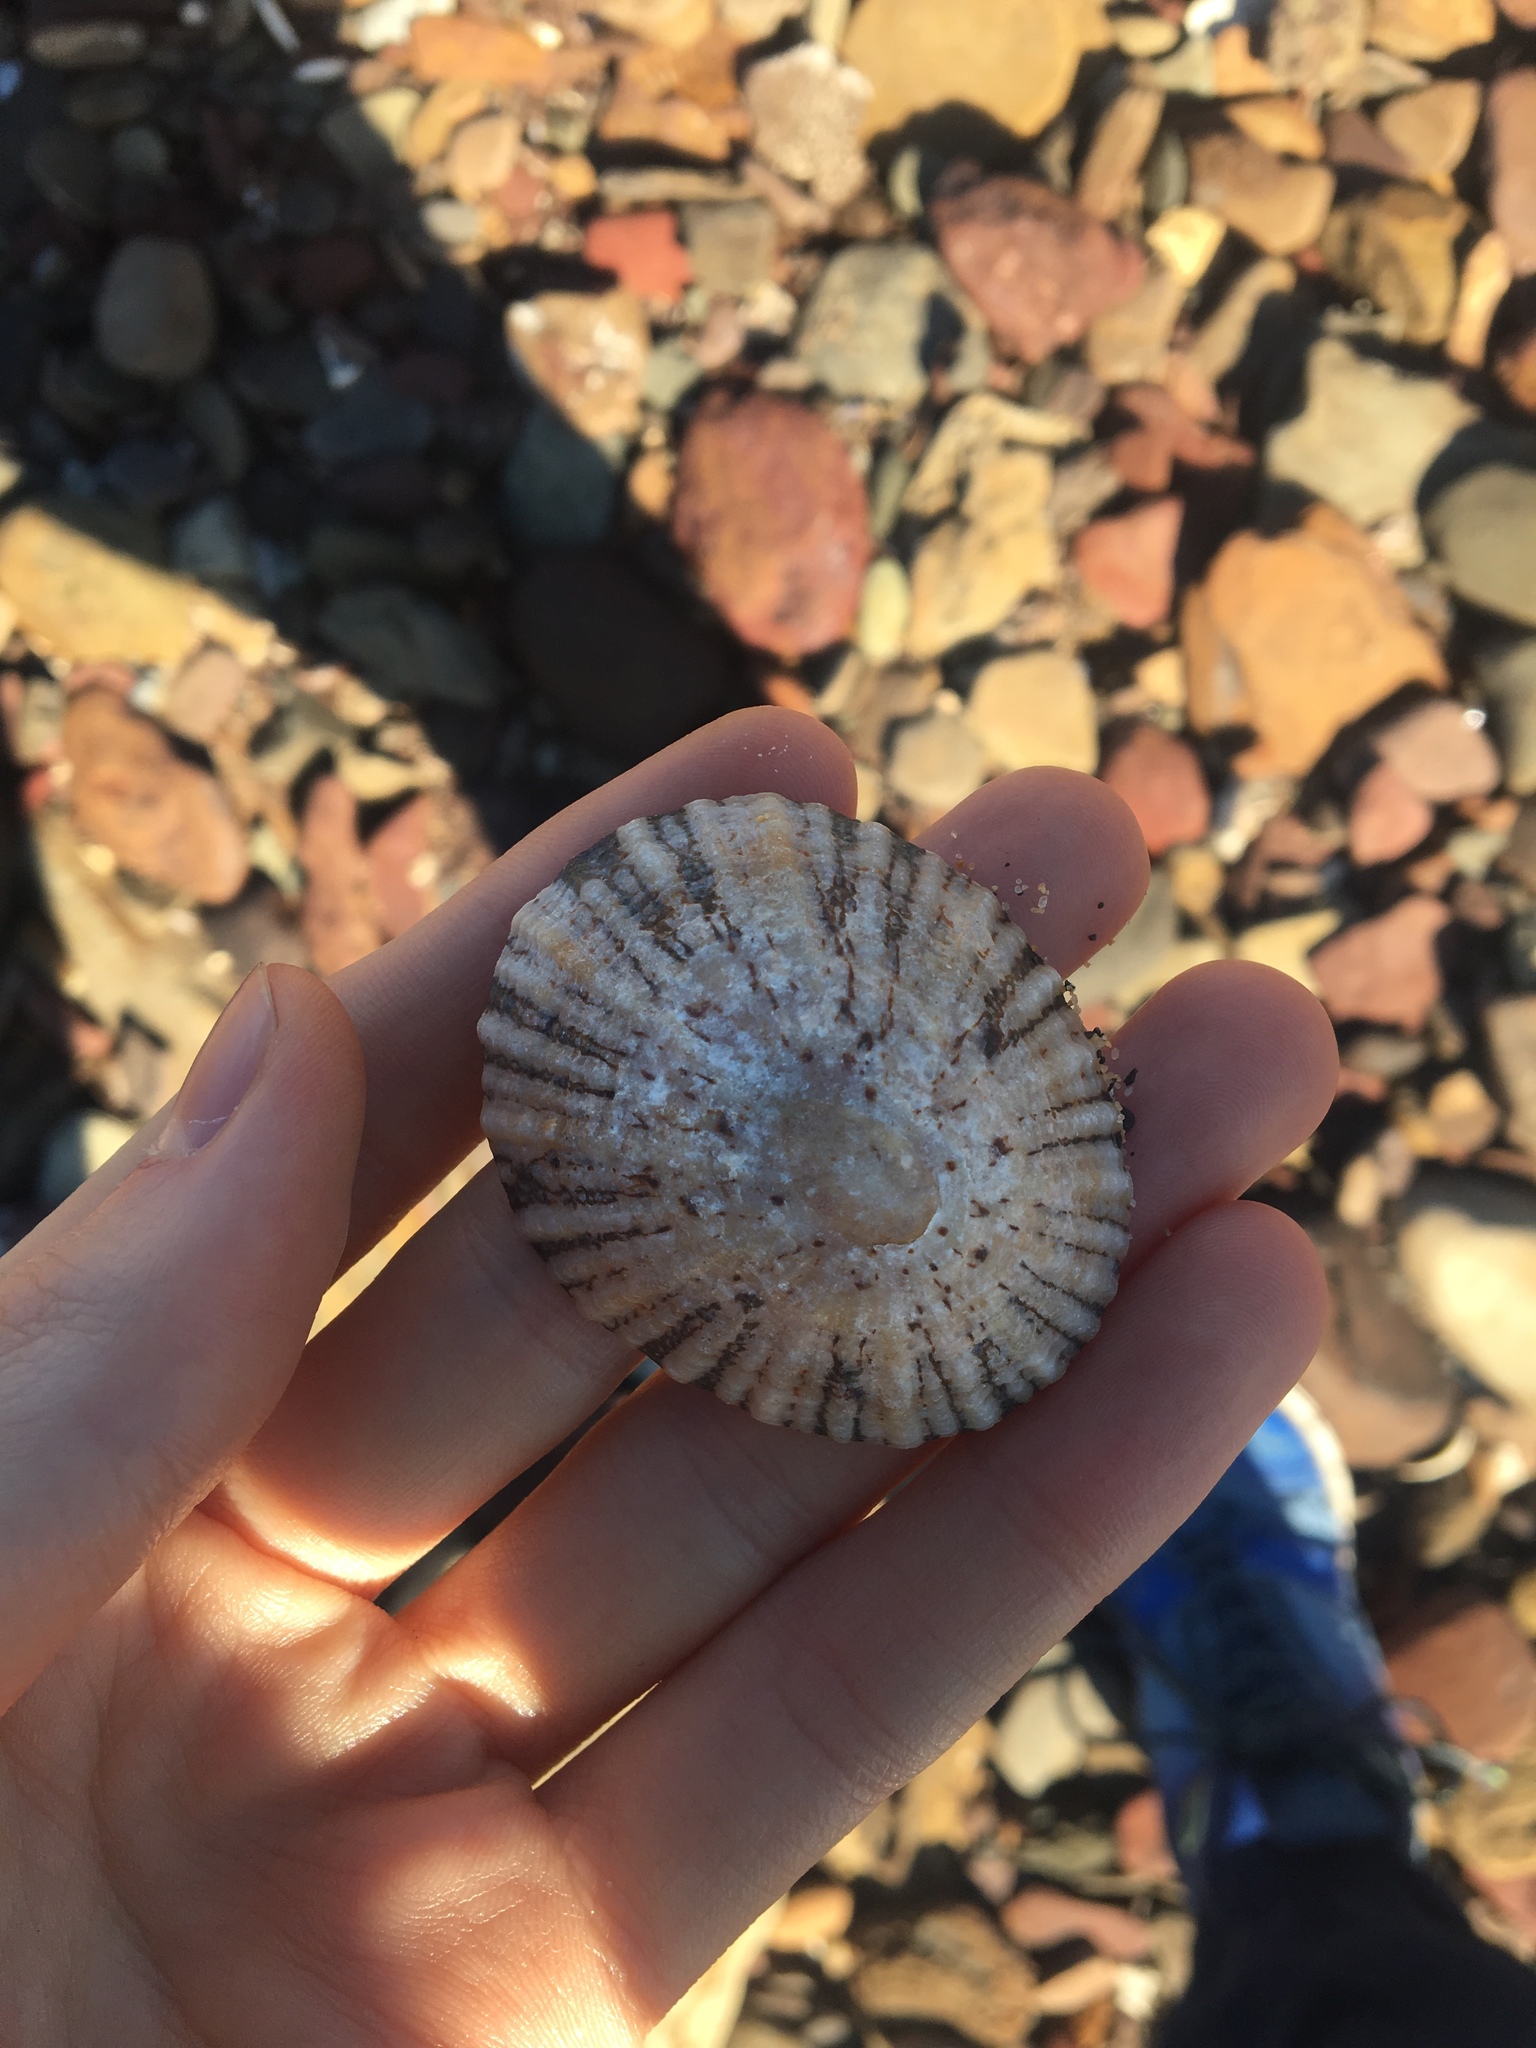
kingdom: Animalia
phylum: Mollusca
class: Gastropoda
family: Nacellidae
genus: Cellana
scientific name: Cellana tramoserica
